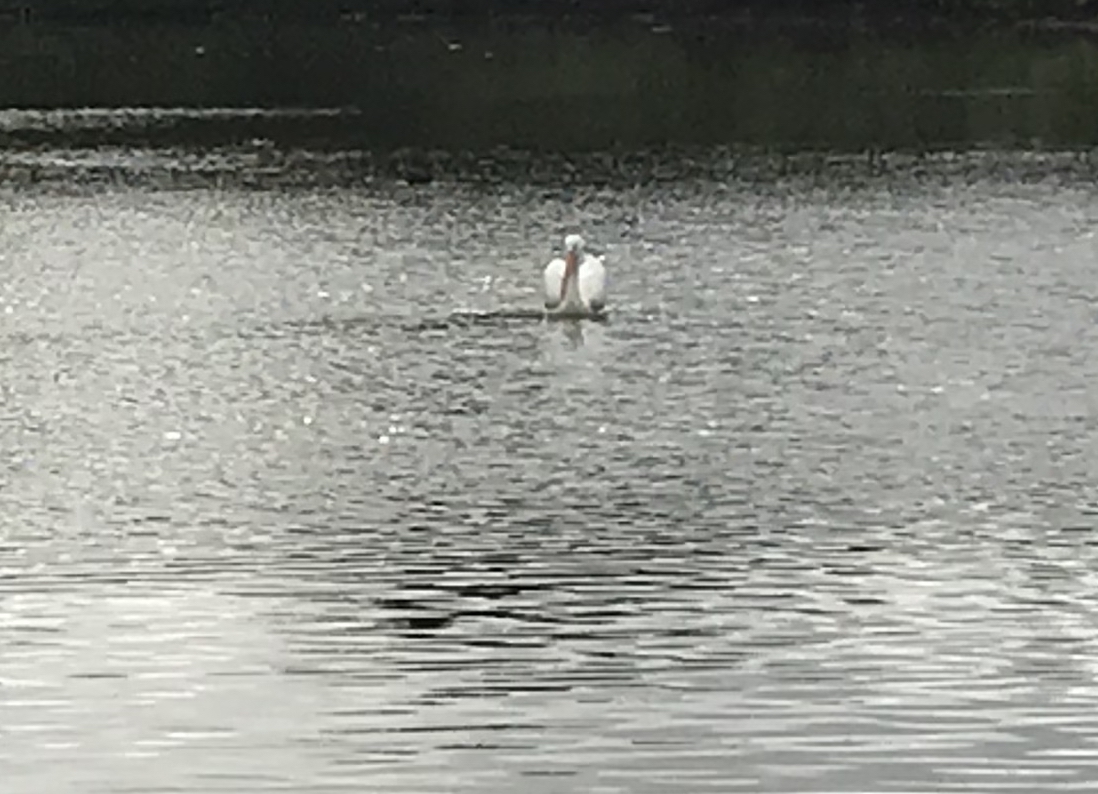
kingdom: Animalia
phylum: Chordata
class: Aves
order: Pelecaniformes
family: Pelecanidae
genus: Pelecanus
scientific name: Pelecanus erythrorhynchos
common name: American white pelican
